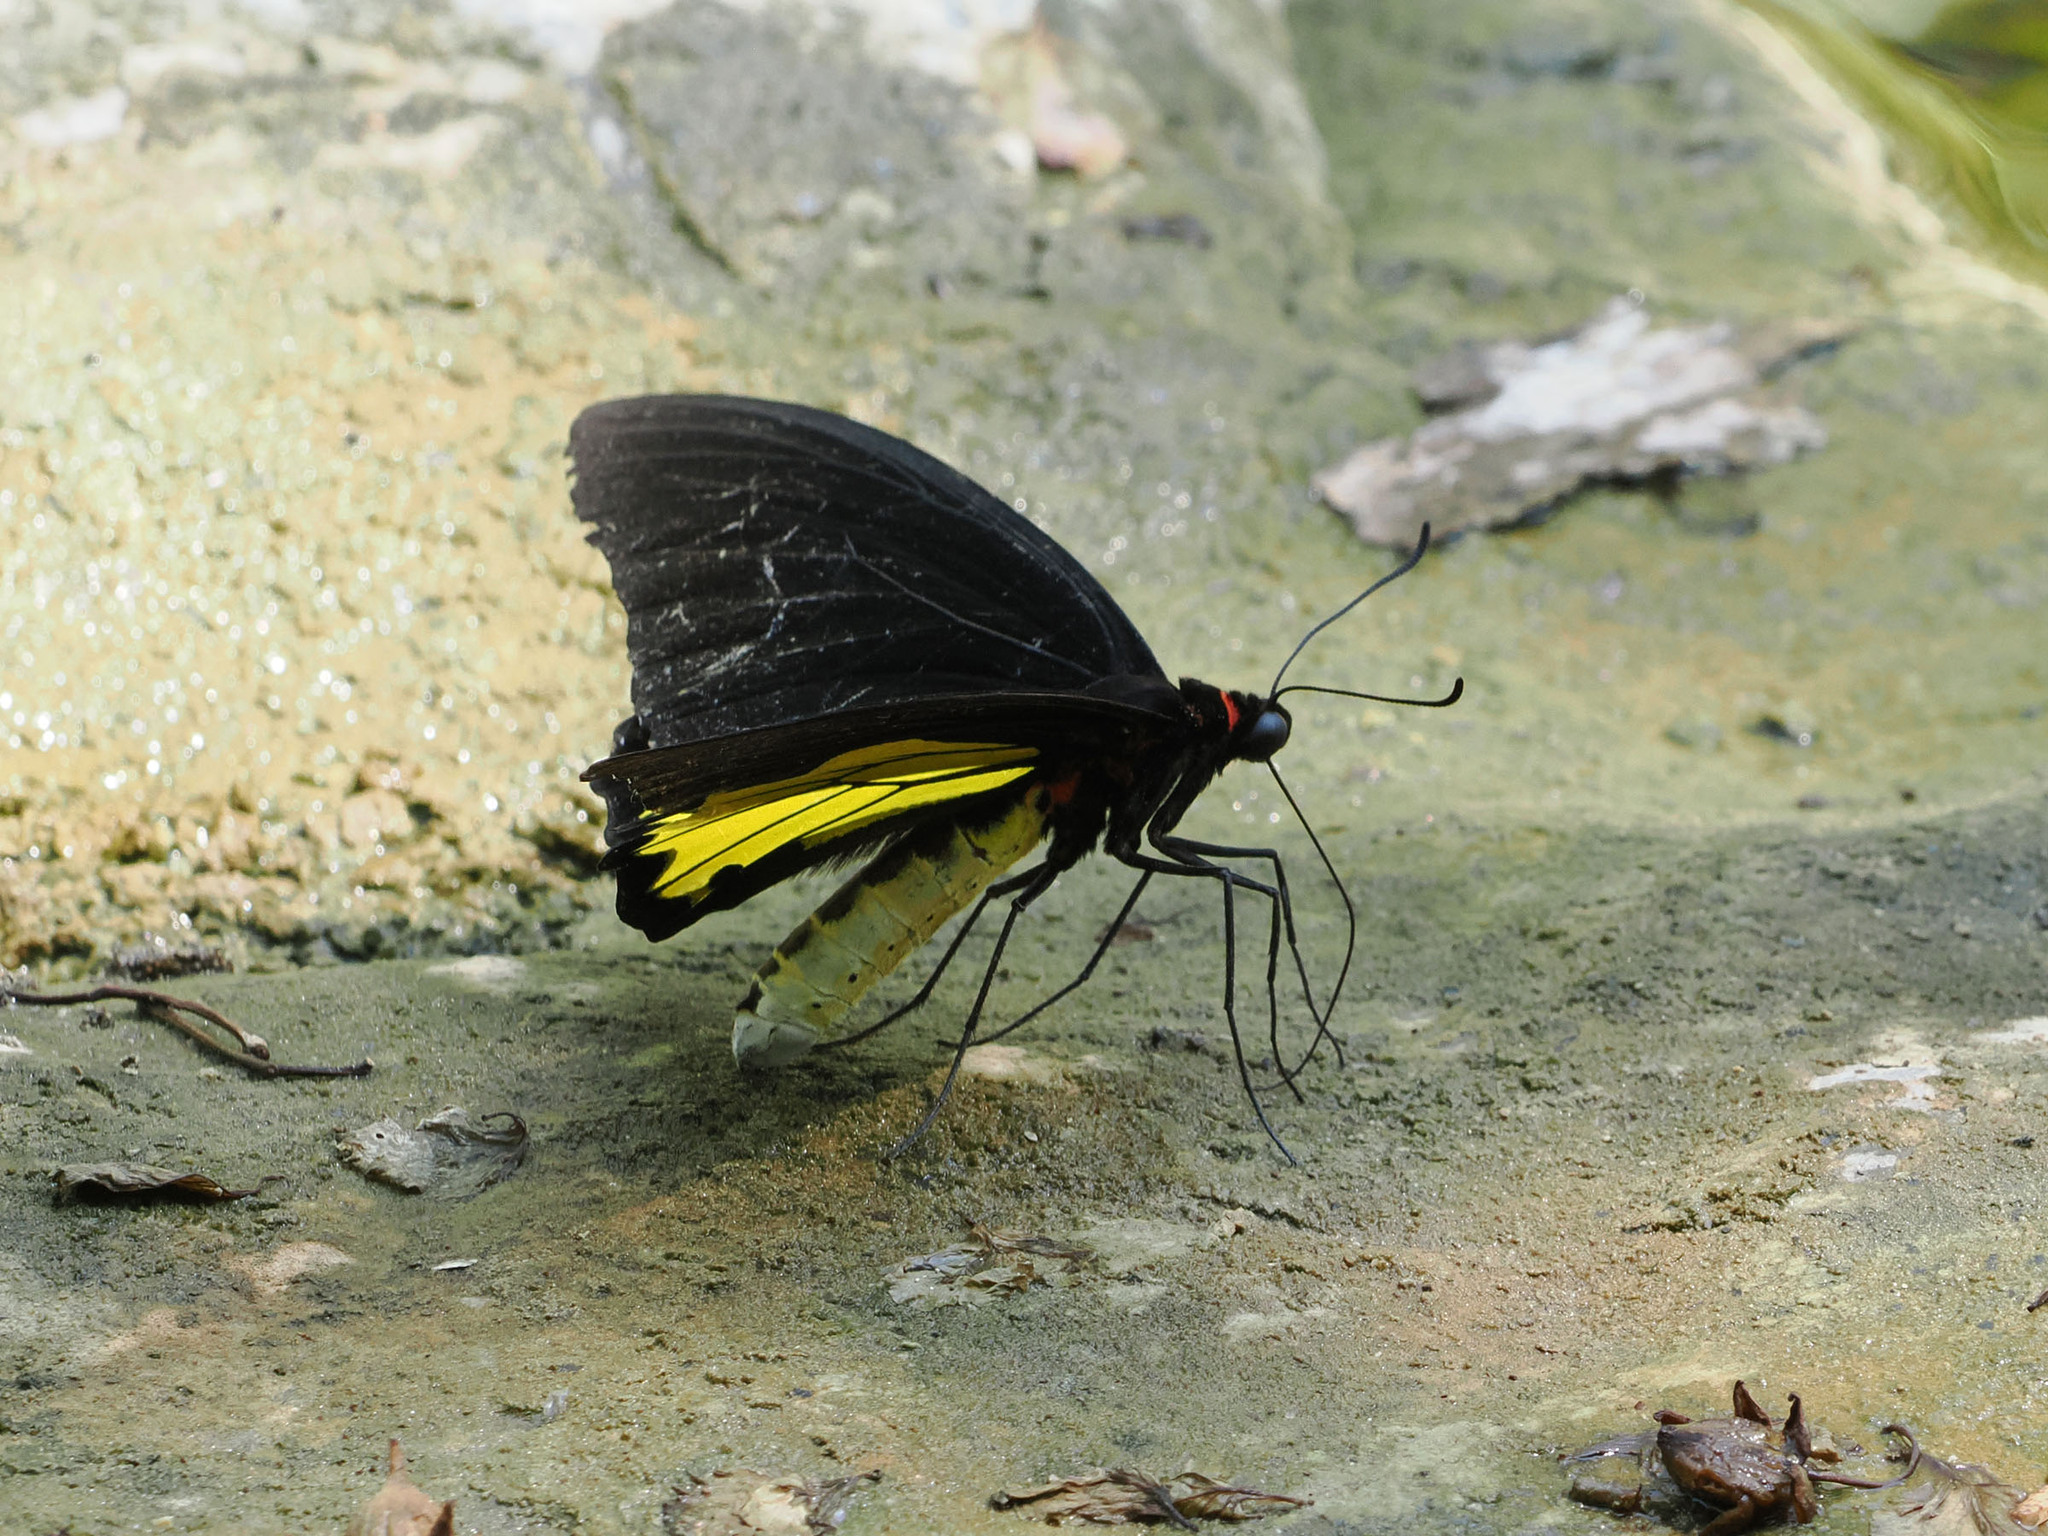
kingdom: Animalia
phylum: Arthropoda
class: Insecta
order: Lepidoptera
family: Papilionidae
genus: Troides
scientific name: Troides helena
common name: Common birdwing
